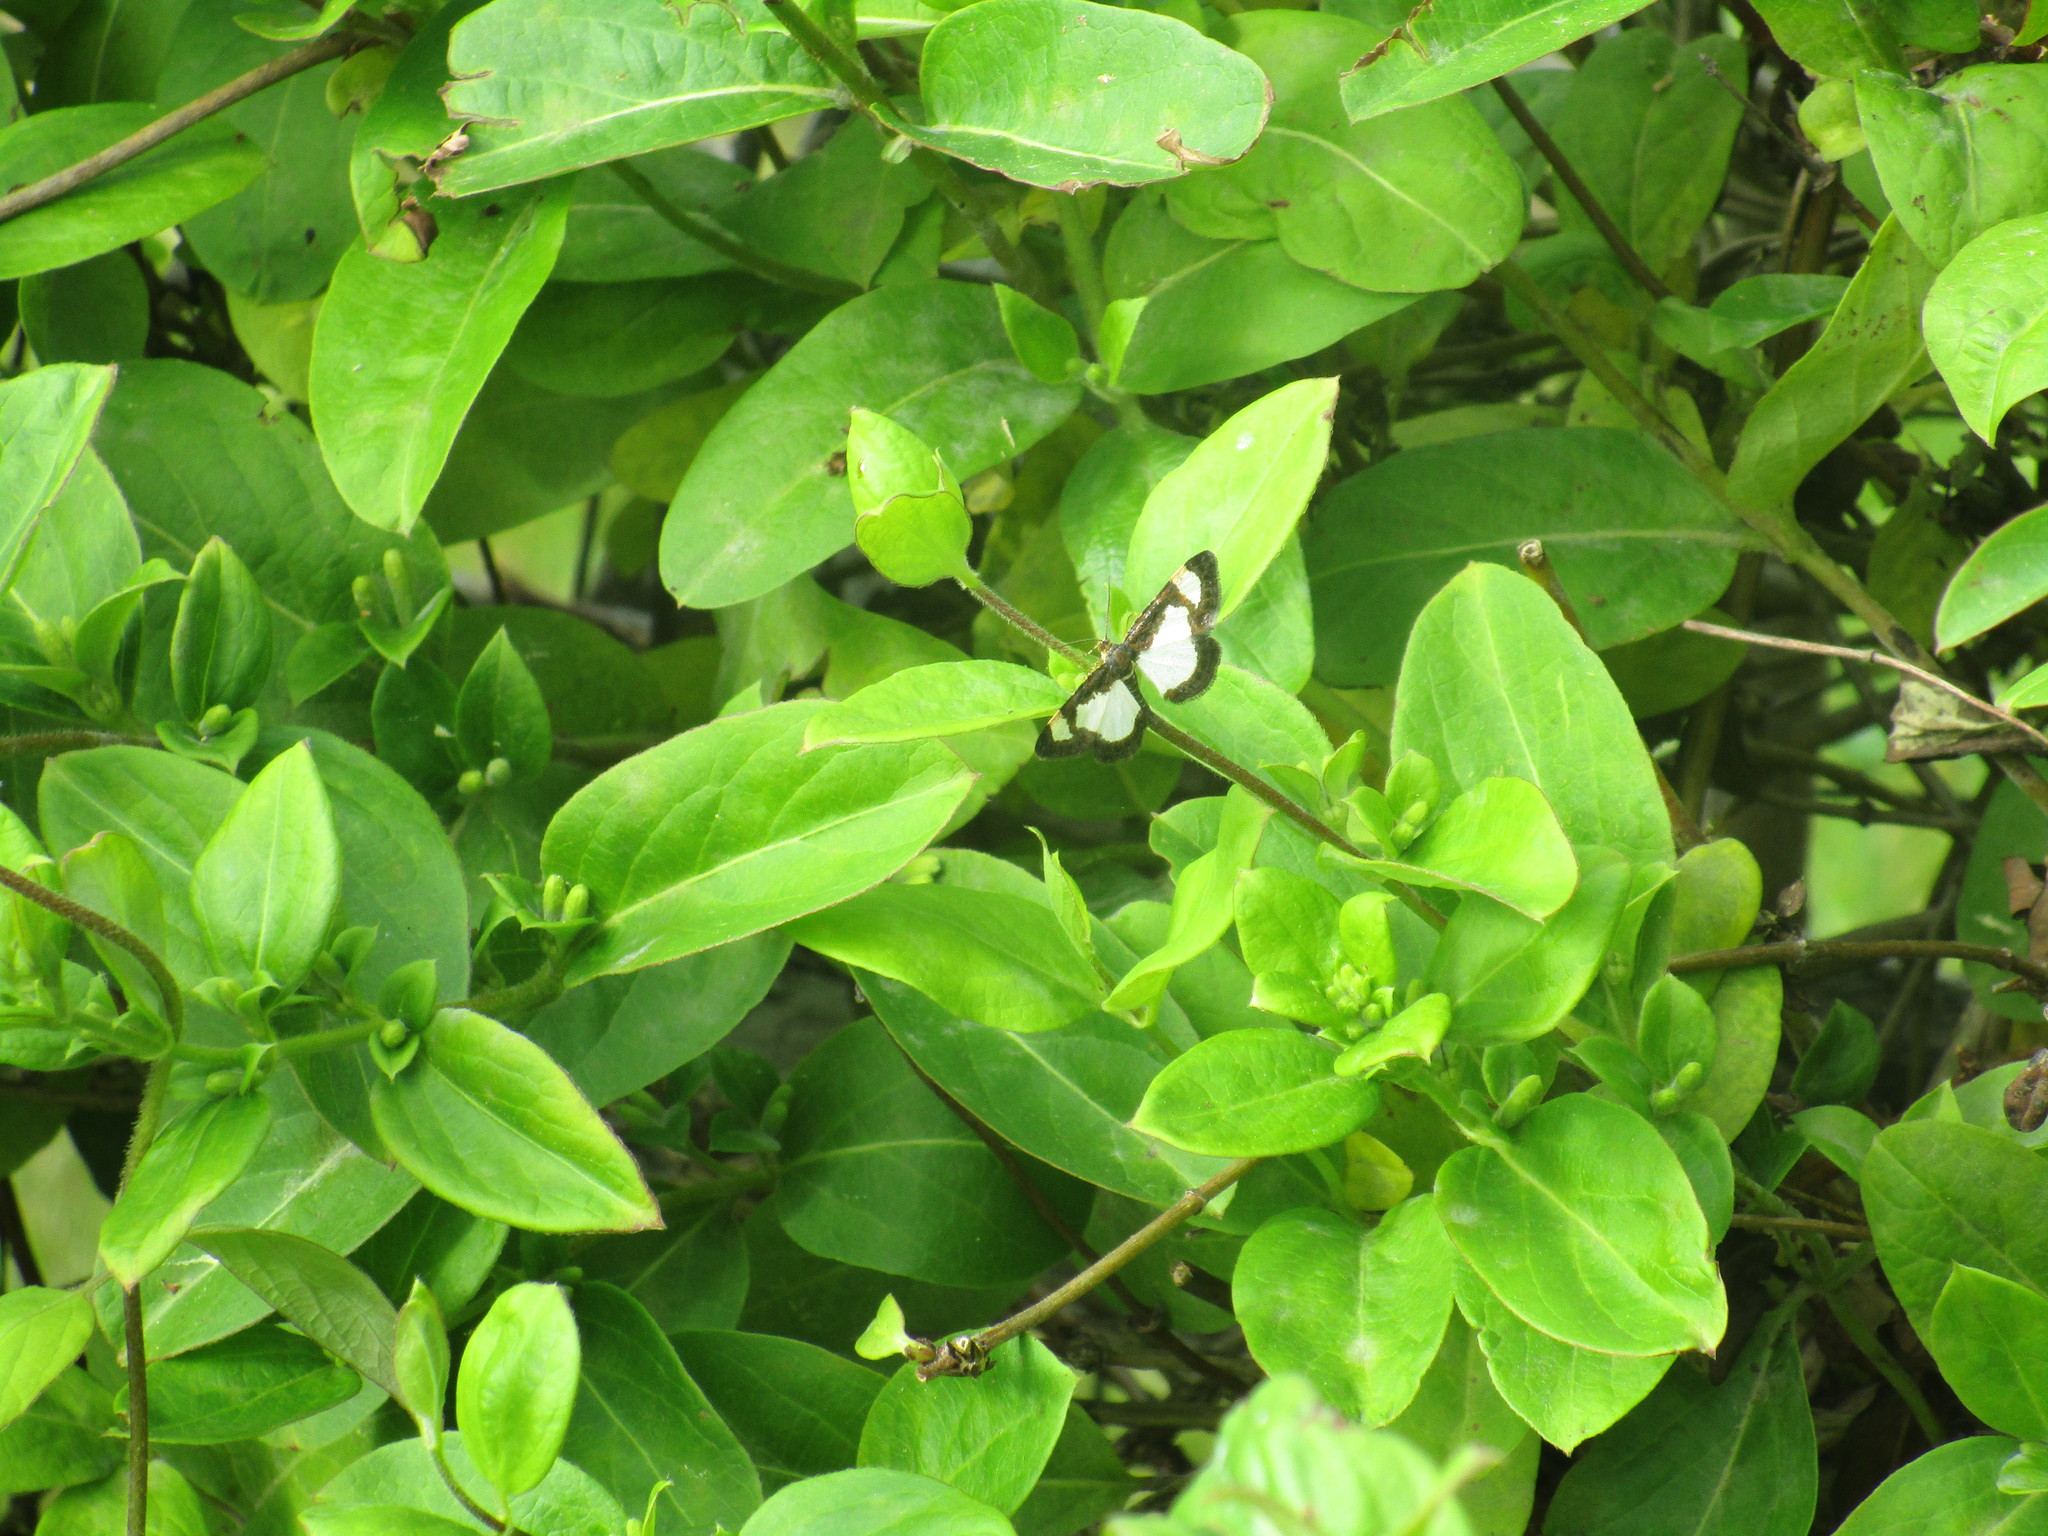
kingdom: Animalia
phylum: Arthropoda
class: Insecta
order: Lepidoptera
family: Geometridae
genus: Heliomata
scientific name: Heliomata cycladata
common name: Common spring moth
